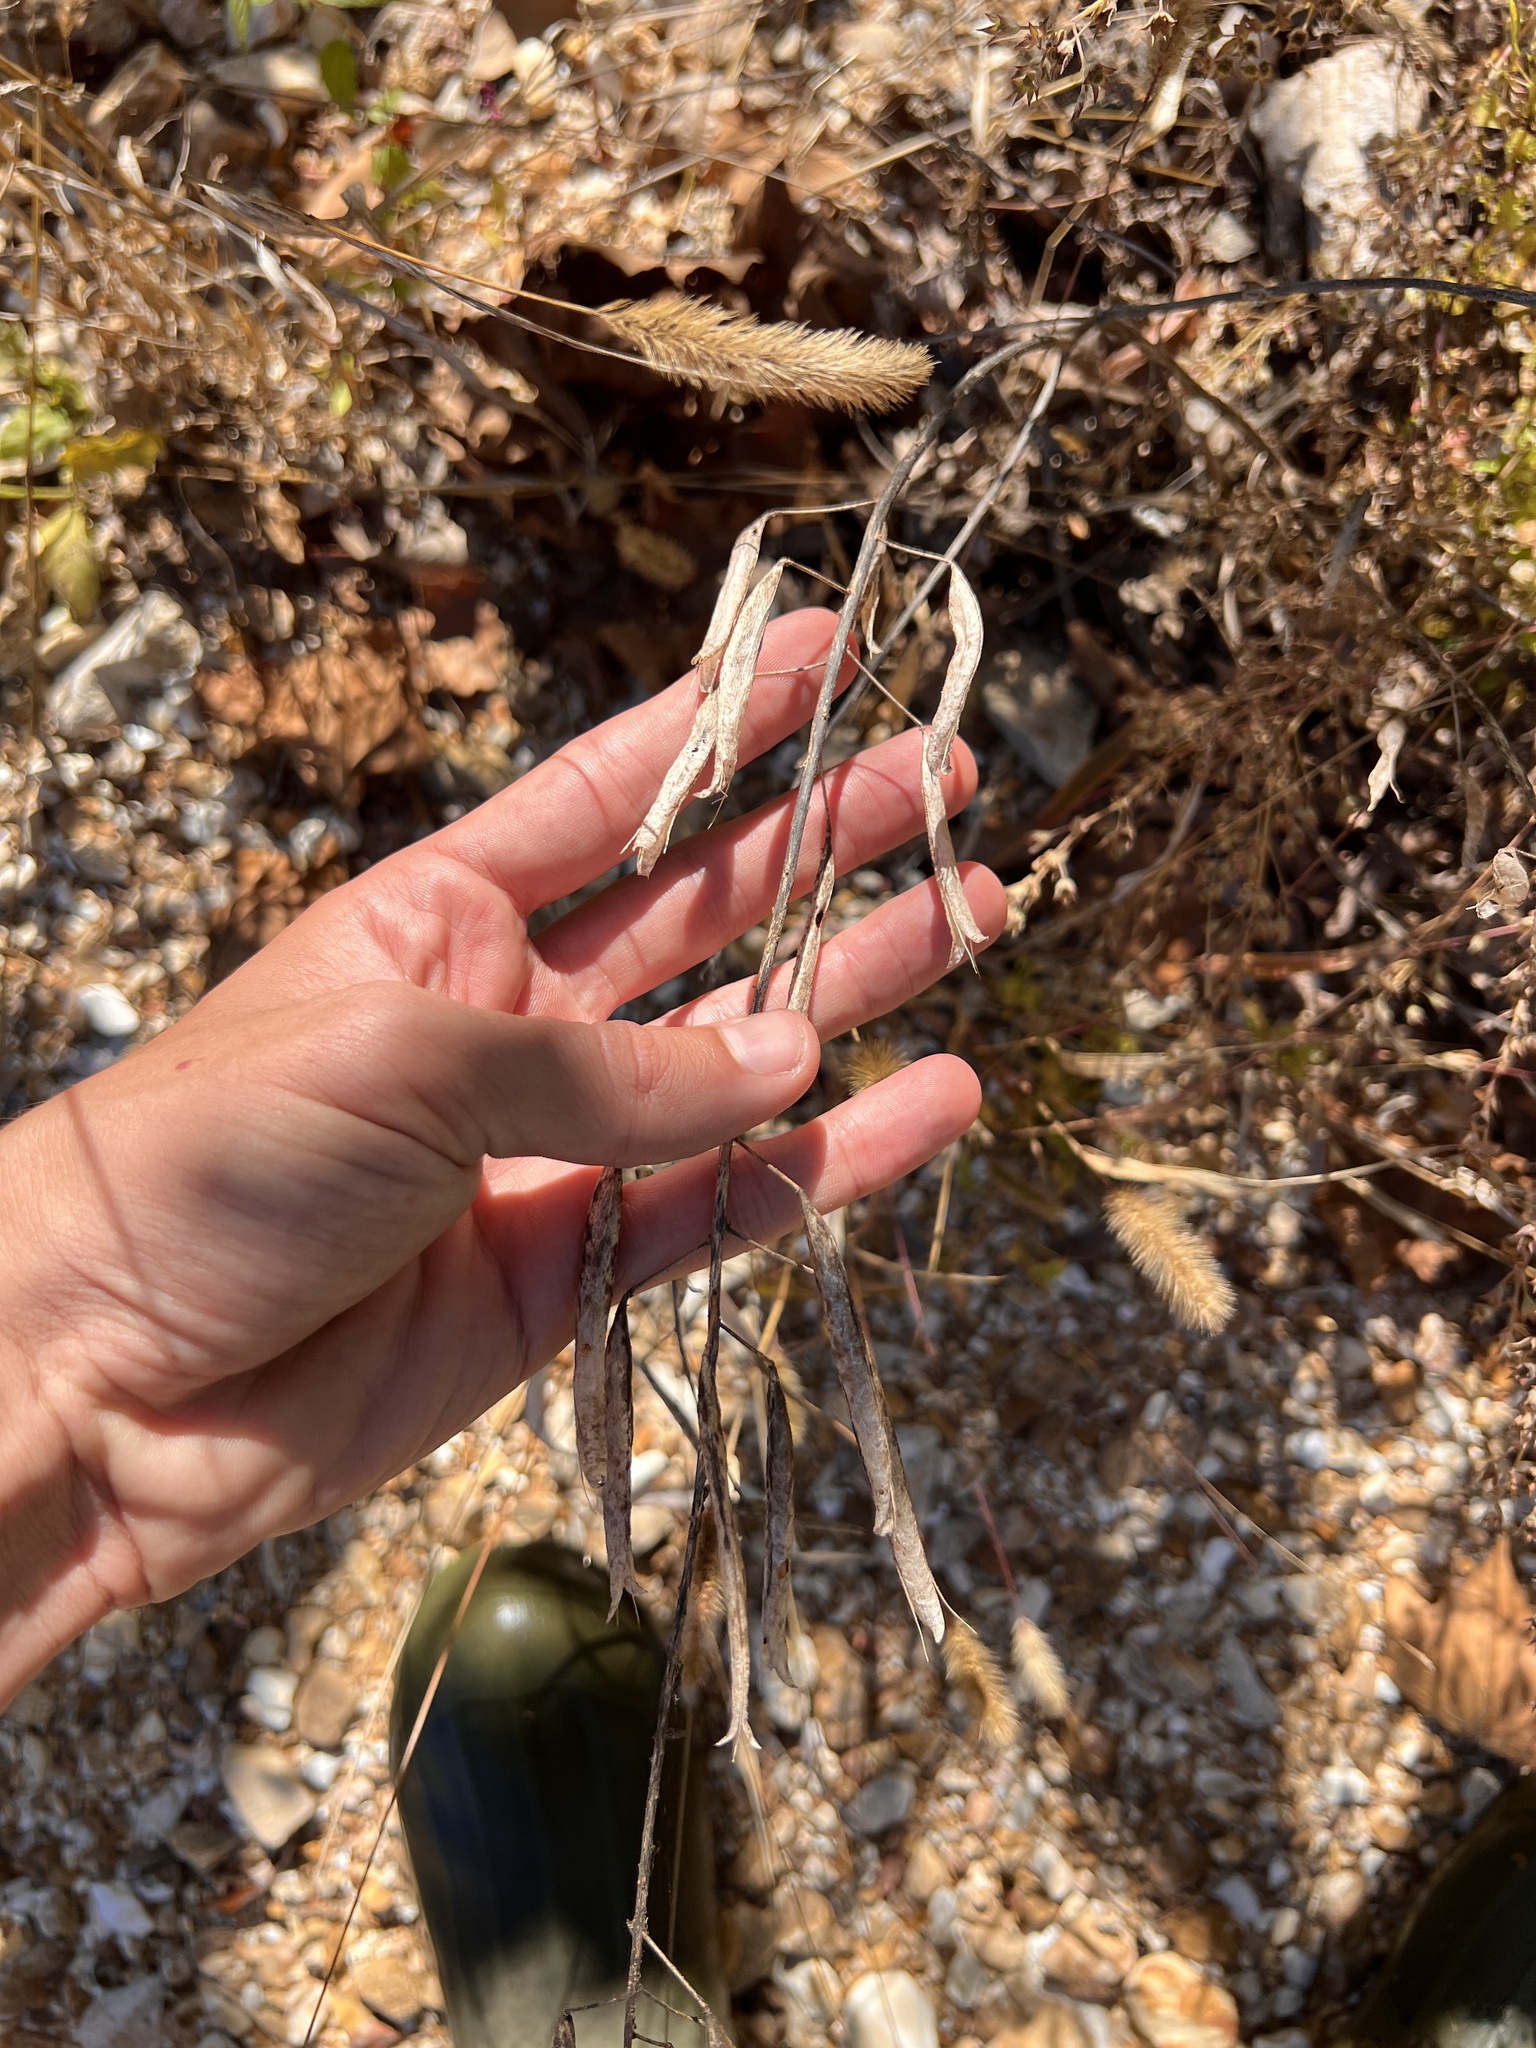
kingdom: Plantae
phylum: Tracheophyta
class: Magnoliopsida
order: Brassicales
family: Cleomaceae
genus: Polanisia
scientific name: Polanisia dodecandra
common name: Clammyweed
